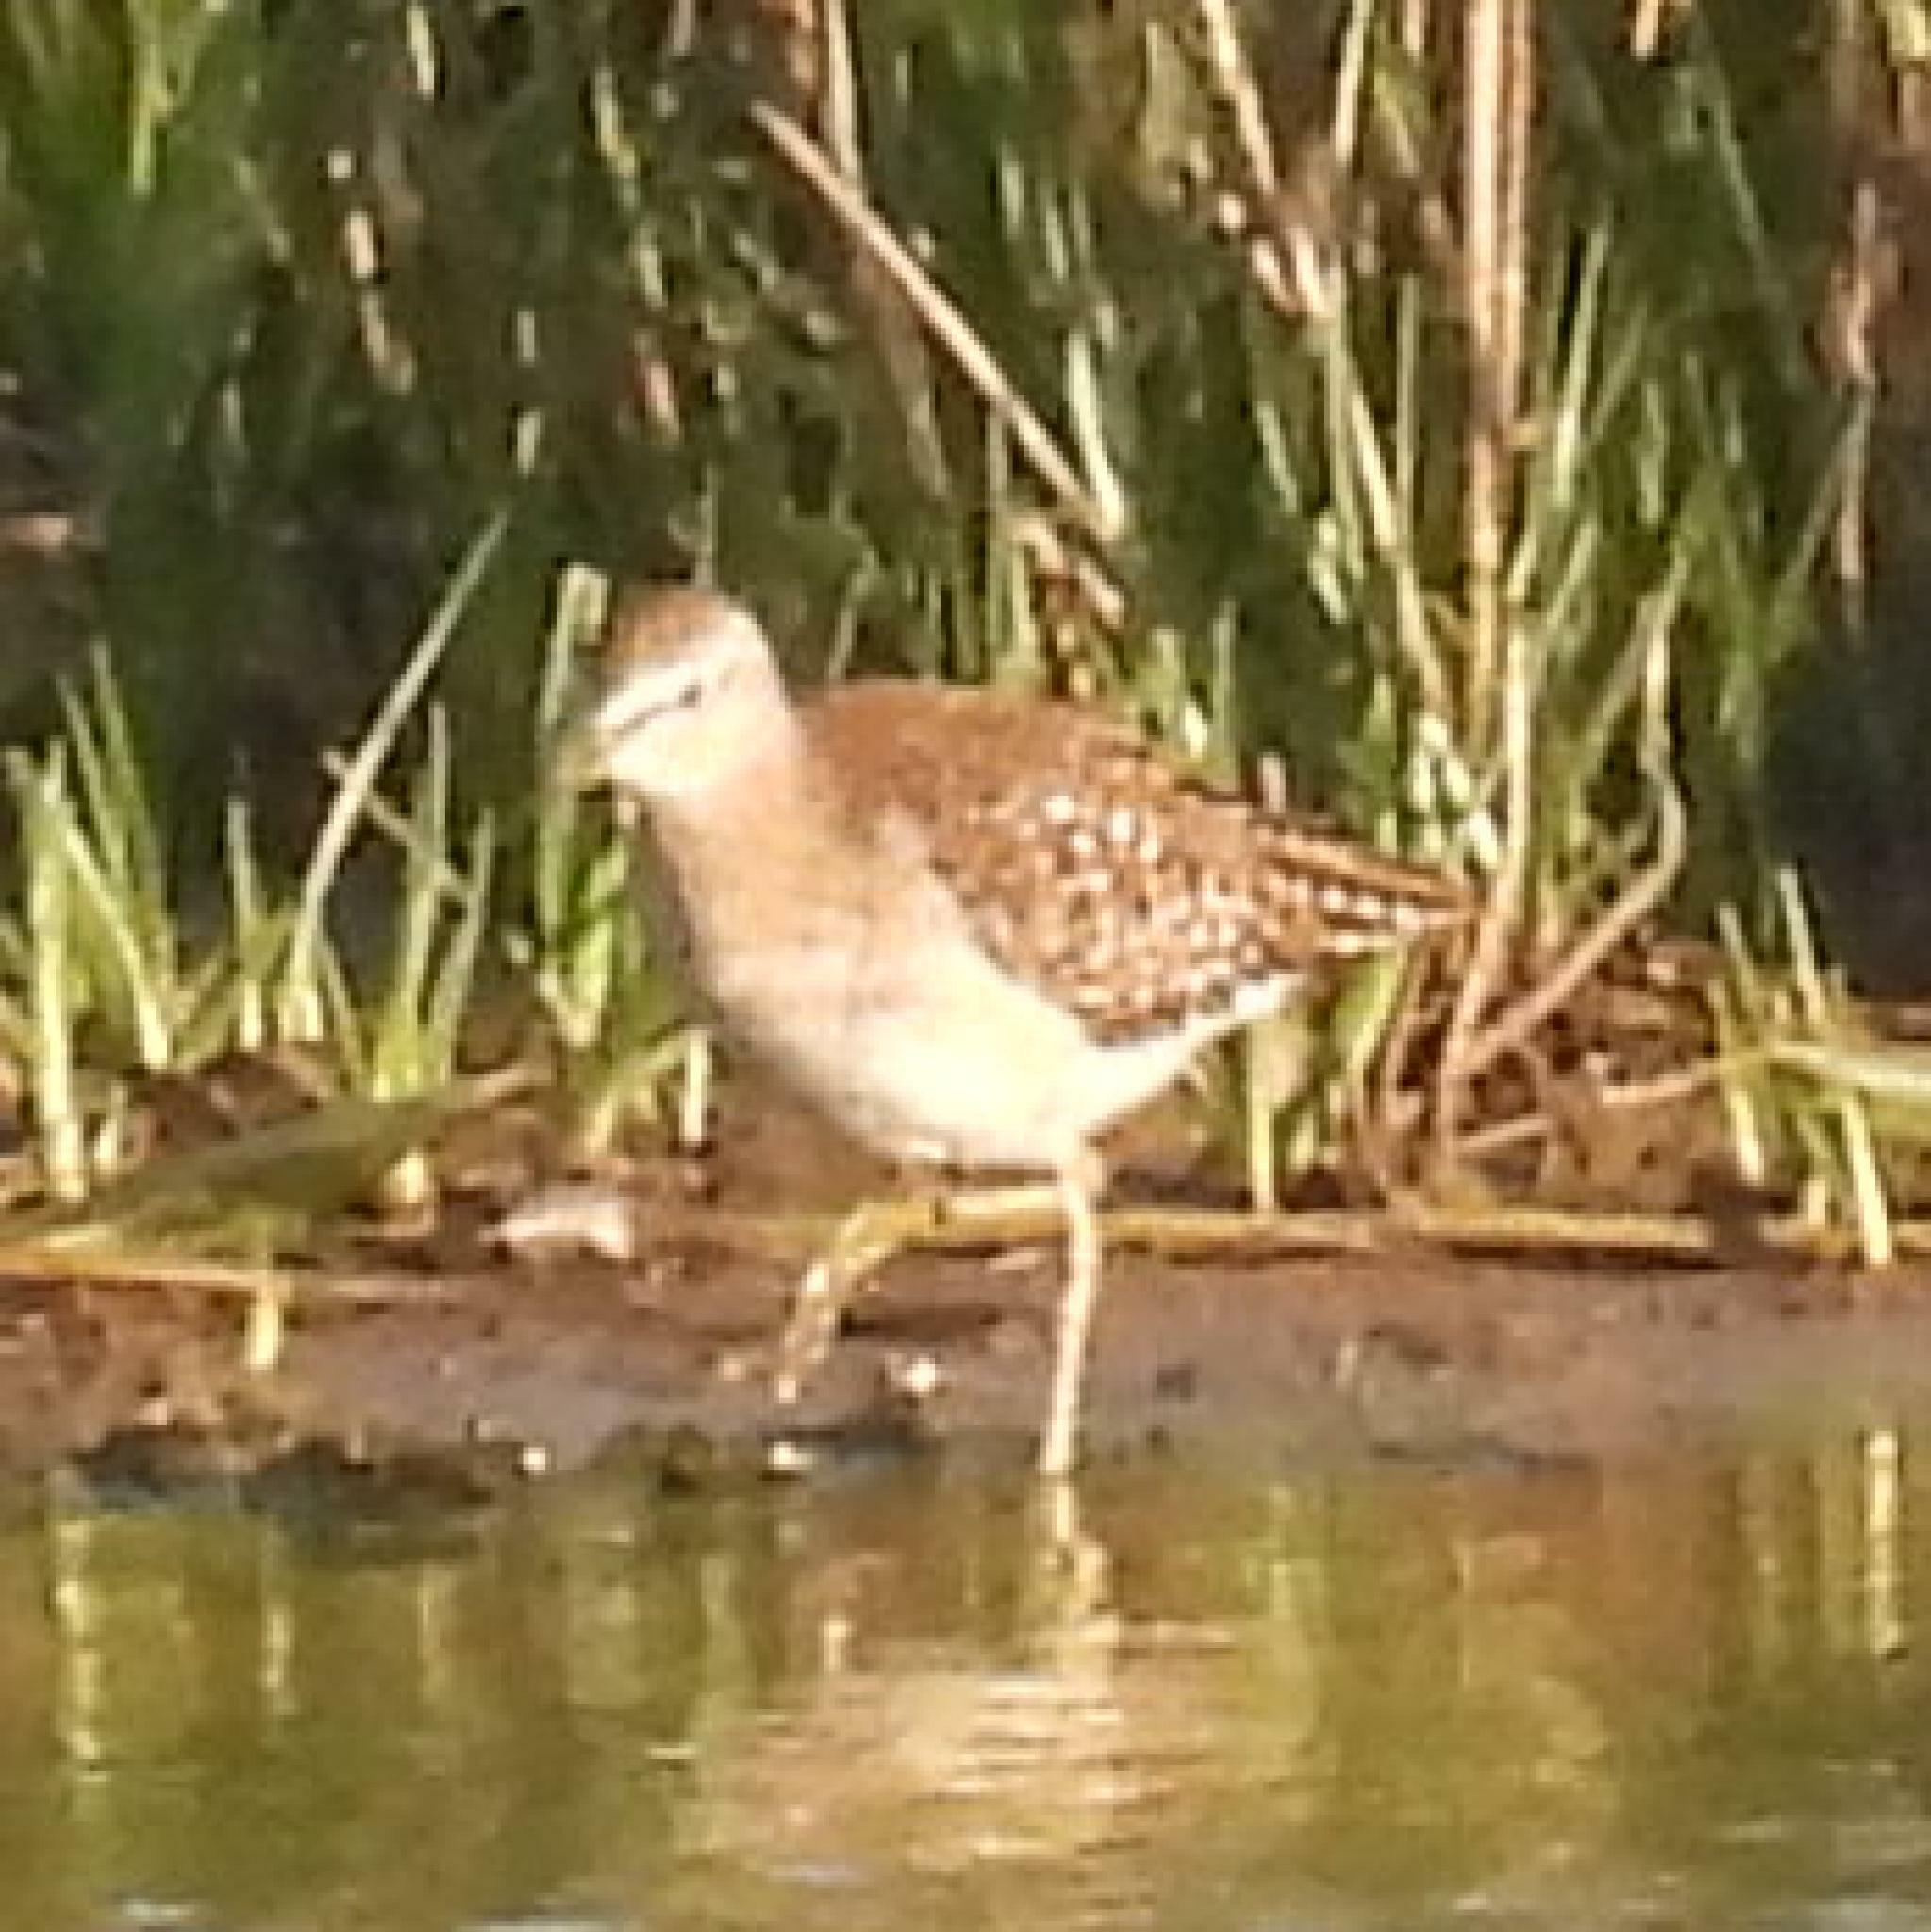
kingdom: Animalia
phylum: Chordata
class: Aves
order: Charadriiformes
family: Scolopacidae
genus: Tringa
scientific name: Tringa glareola
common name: Wood sandpiper
